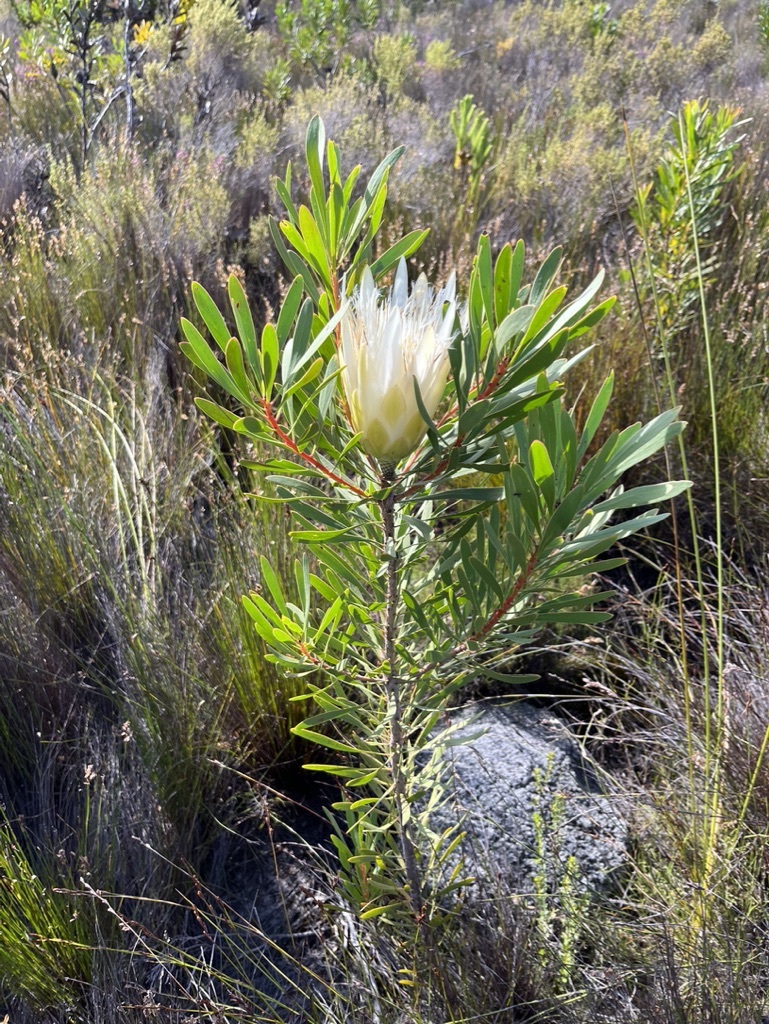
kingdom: Plantae
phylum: Tracheophyta
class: Magnoliopsida
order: Proteales
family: Proteaceae
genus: Protea
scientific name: Protea repens
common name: Sugarbush
